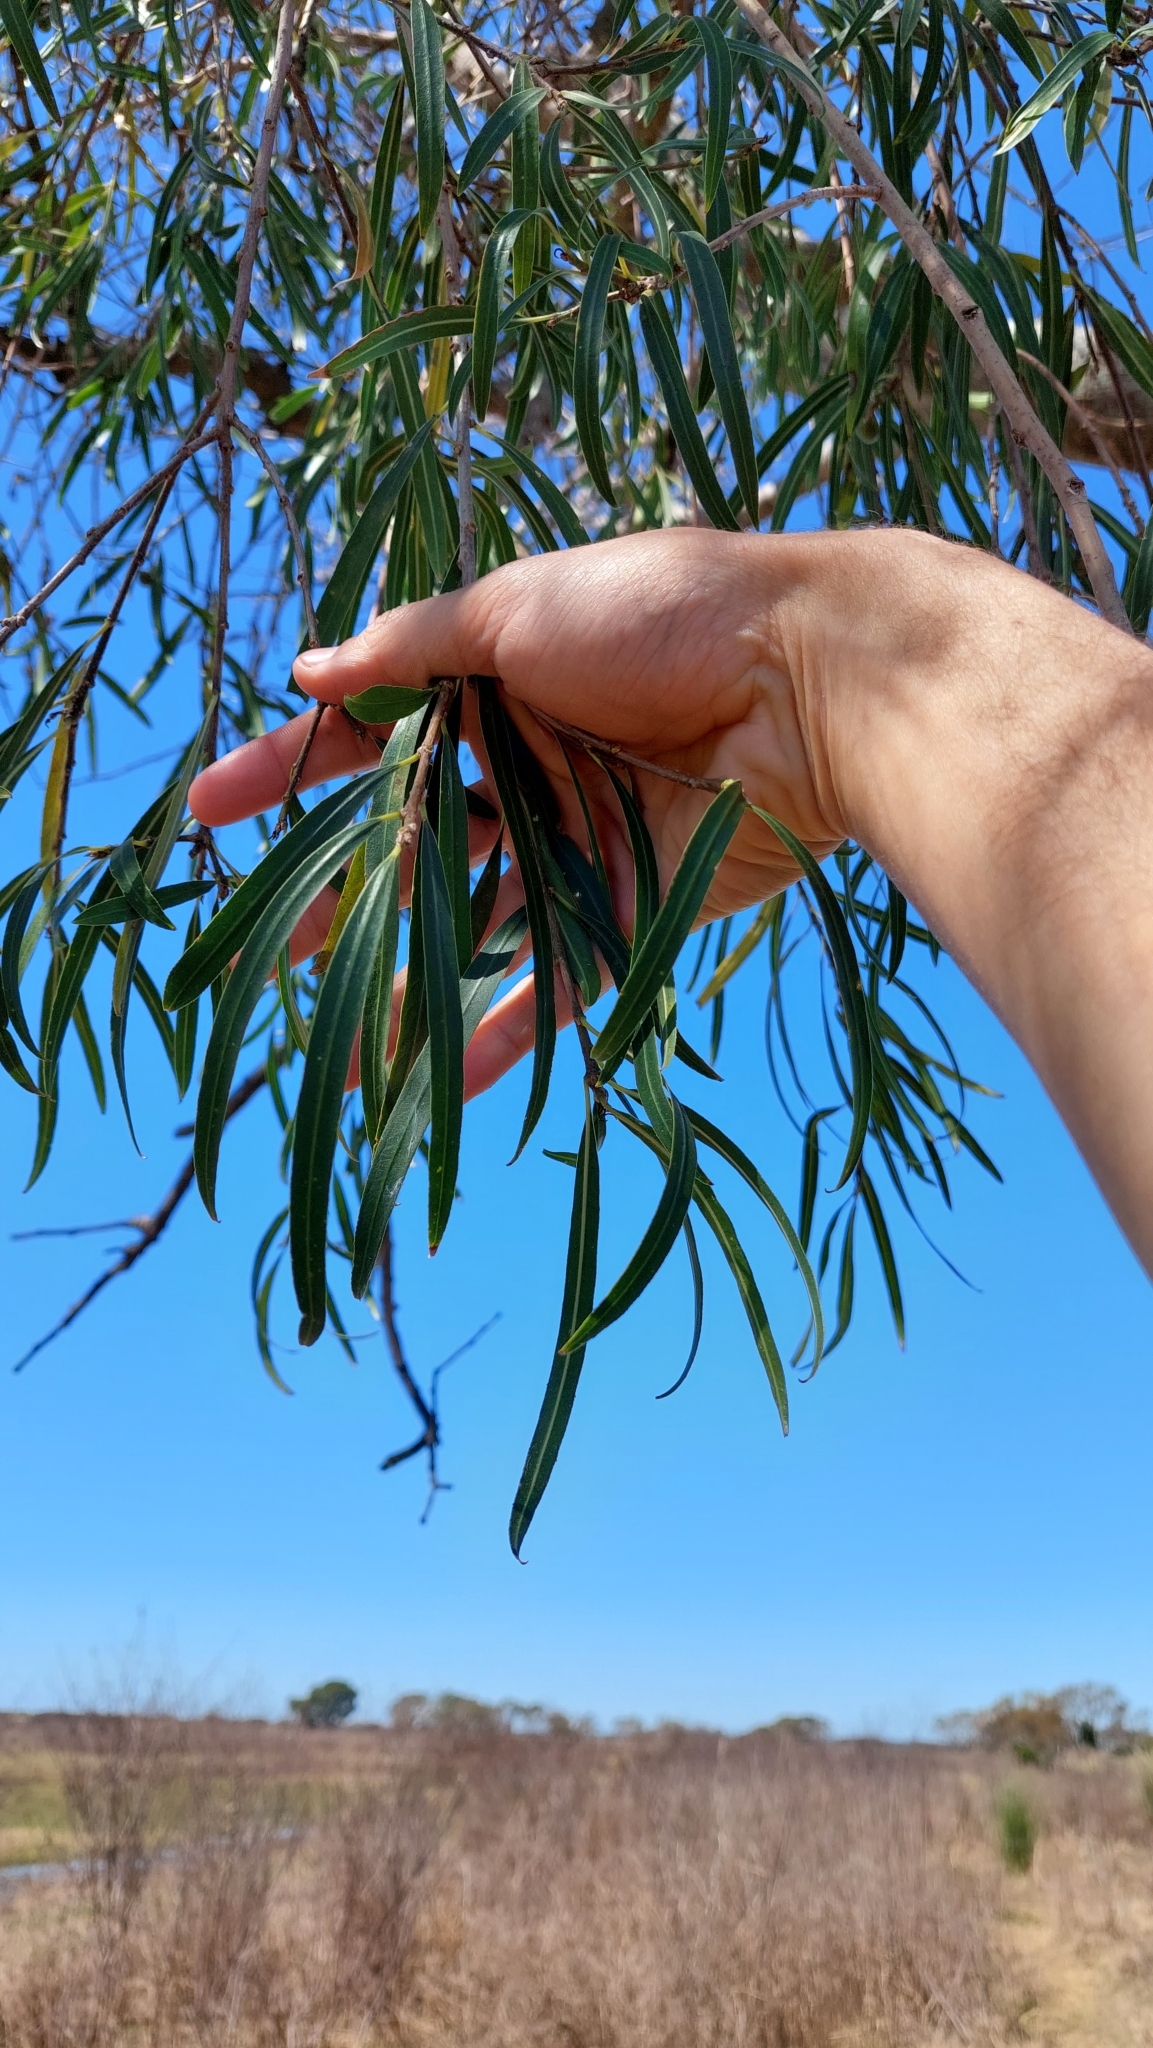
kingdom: Plantae
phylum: Tracheophyta
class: Magnoliopsida
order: Malpighiales
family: Euphorbiaceae
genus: Sapium
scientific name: Sapium haematospermum
